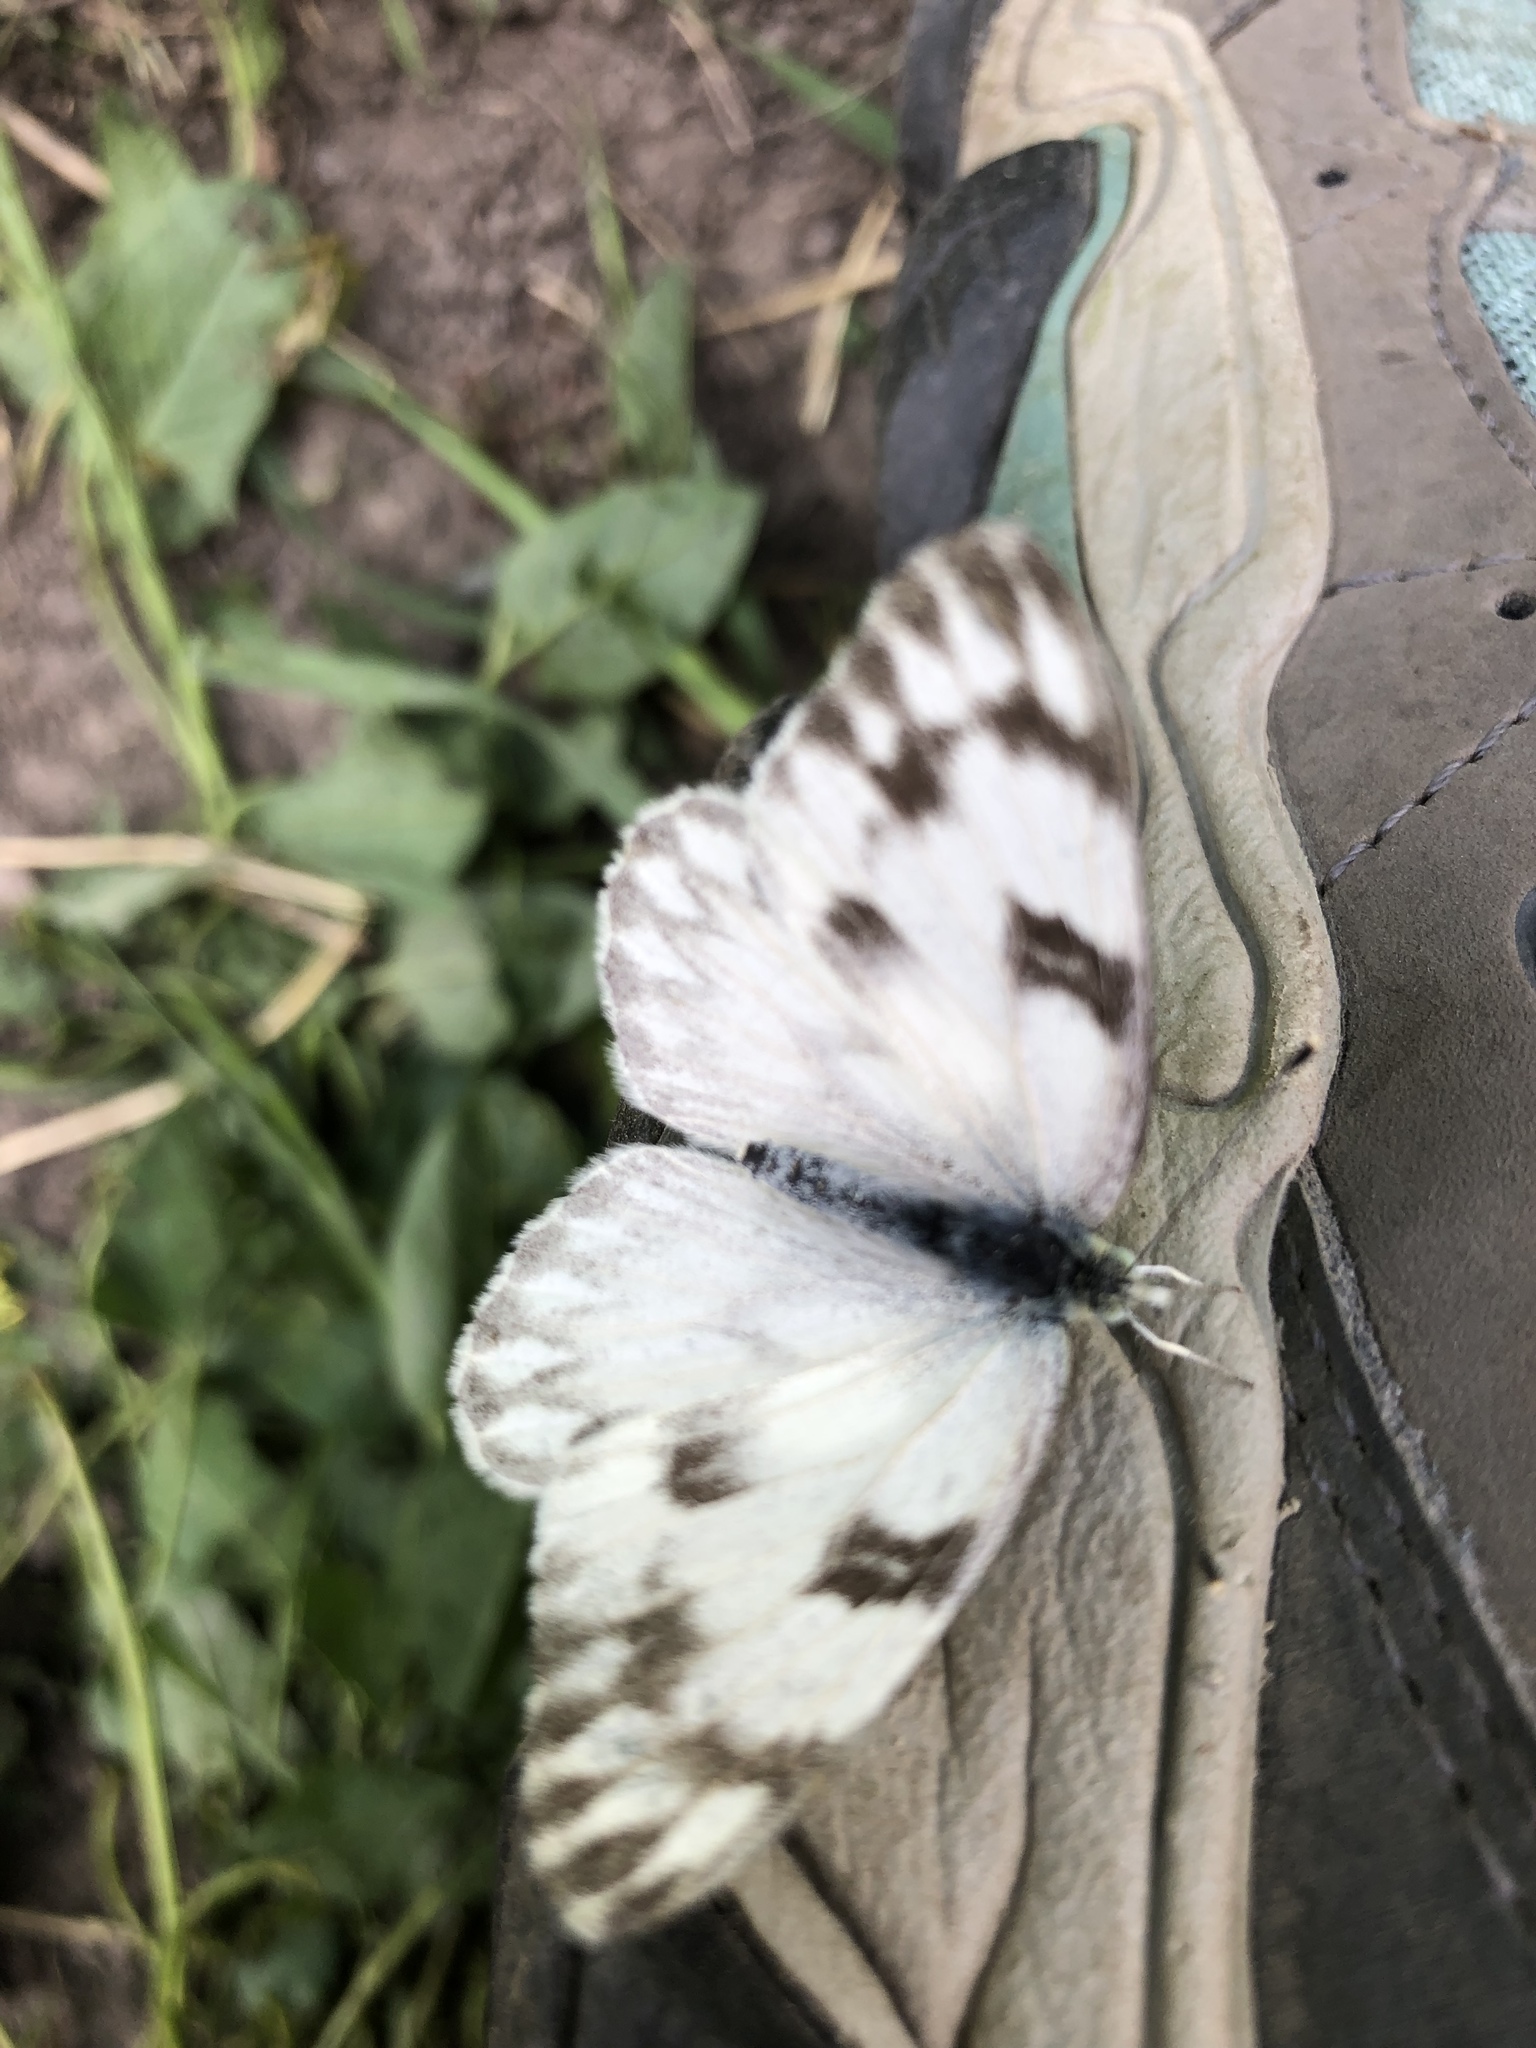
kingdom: Animalia
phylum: Arthropoda
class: Insecta
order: Lepidoptera
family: Pieridae
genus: Pontia
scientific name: Pontia occidentalis
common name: Western white
